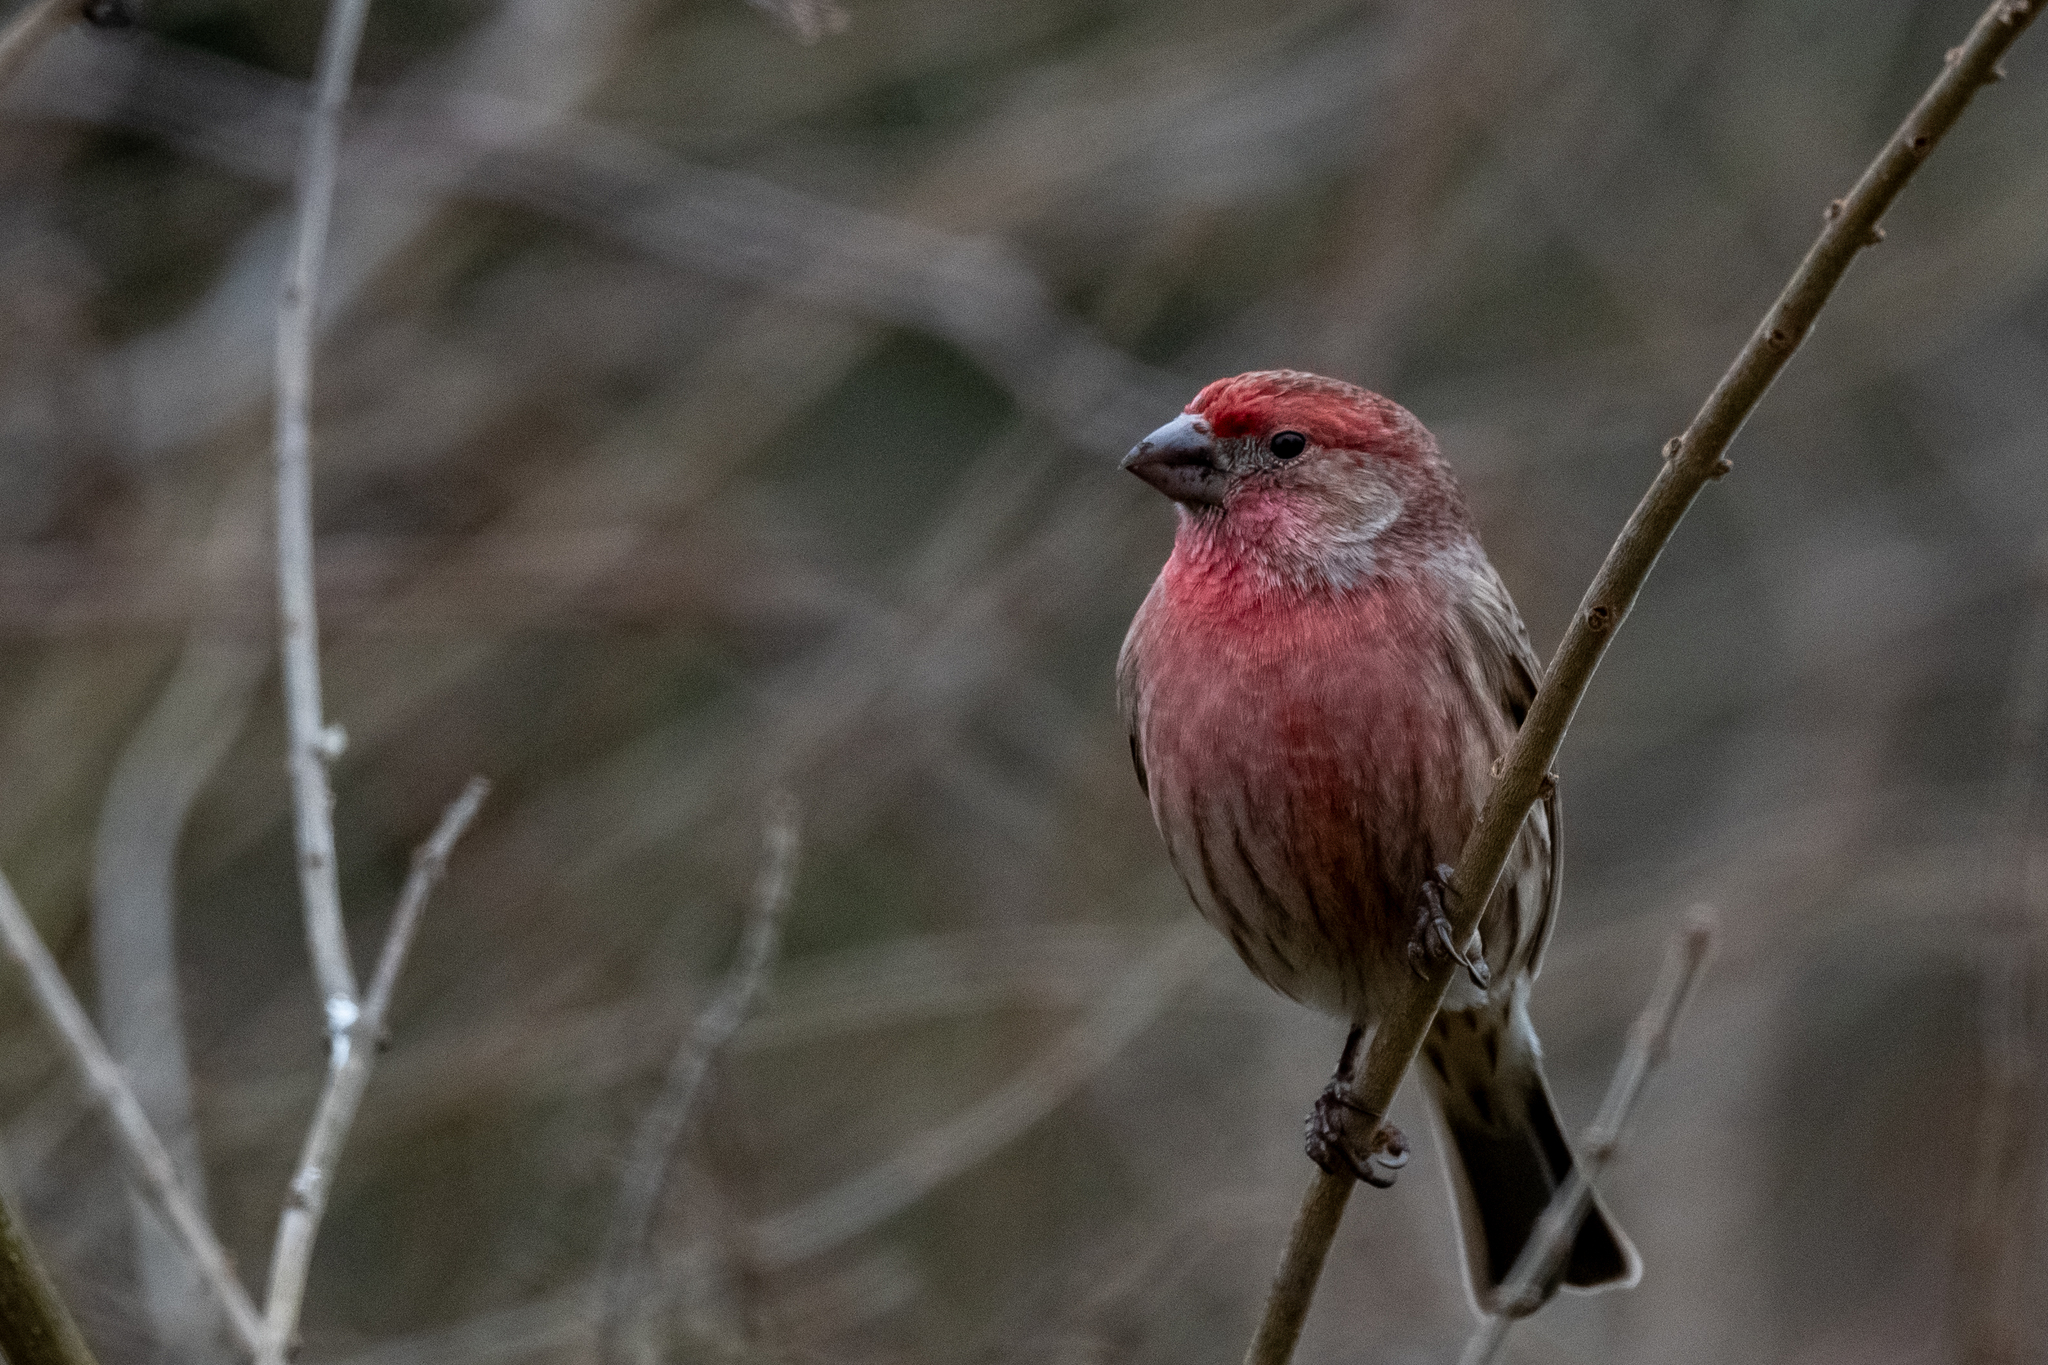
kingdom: Animalia
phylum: Chordata
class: Aves
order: Passeriformes
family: Fringillidae
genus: Haemorhous
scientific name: Haemorhous mexicanus
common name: House finch
